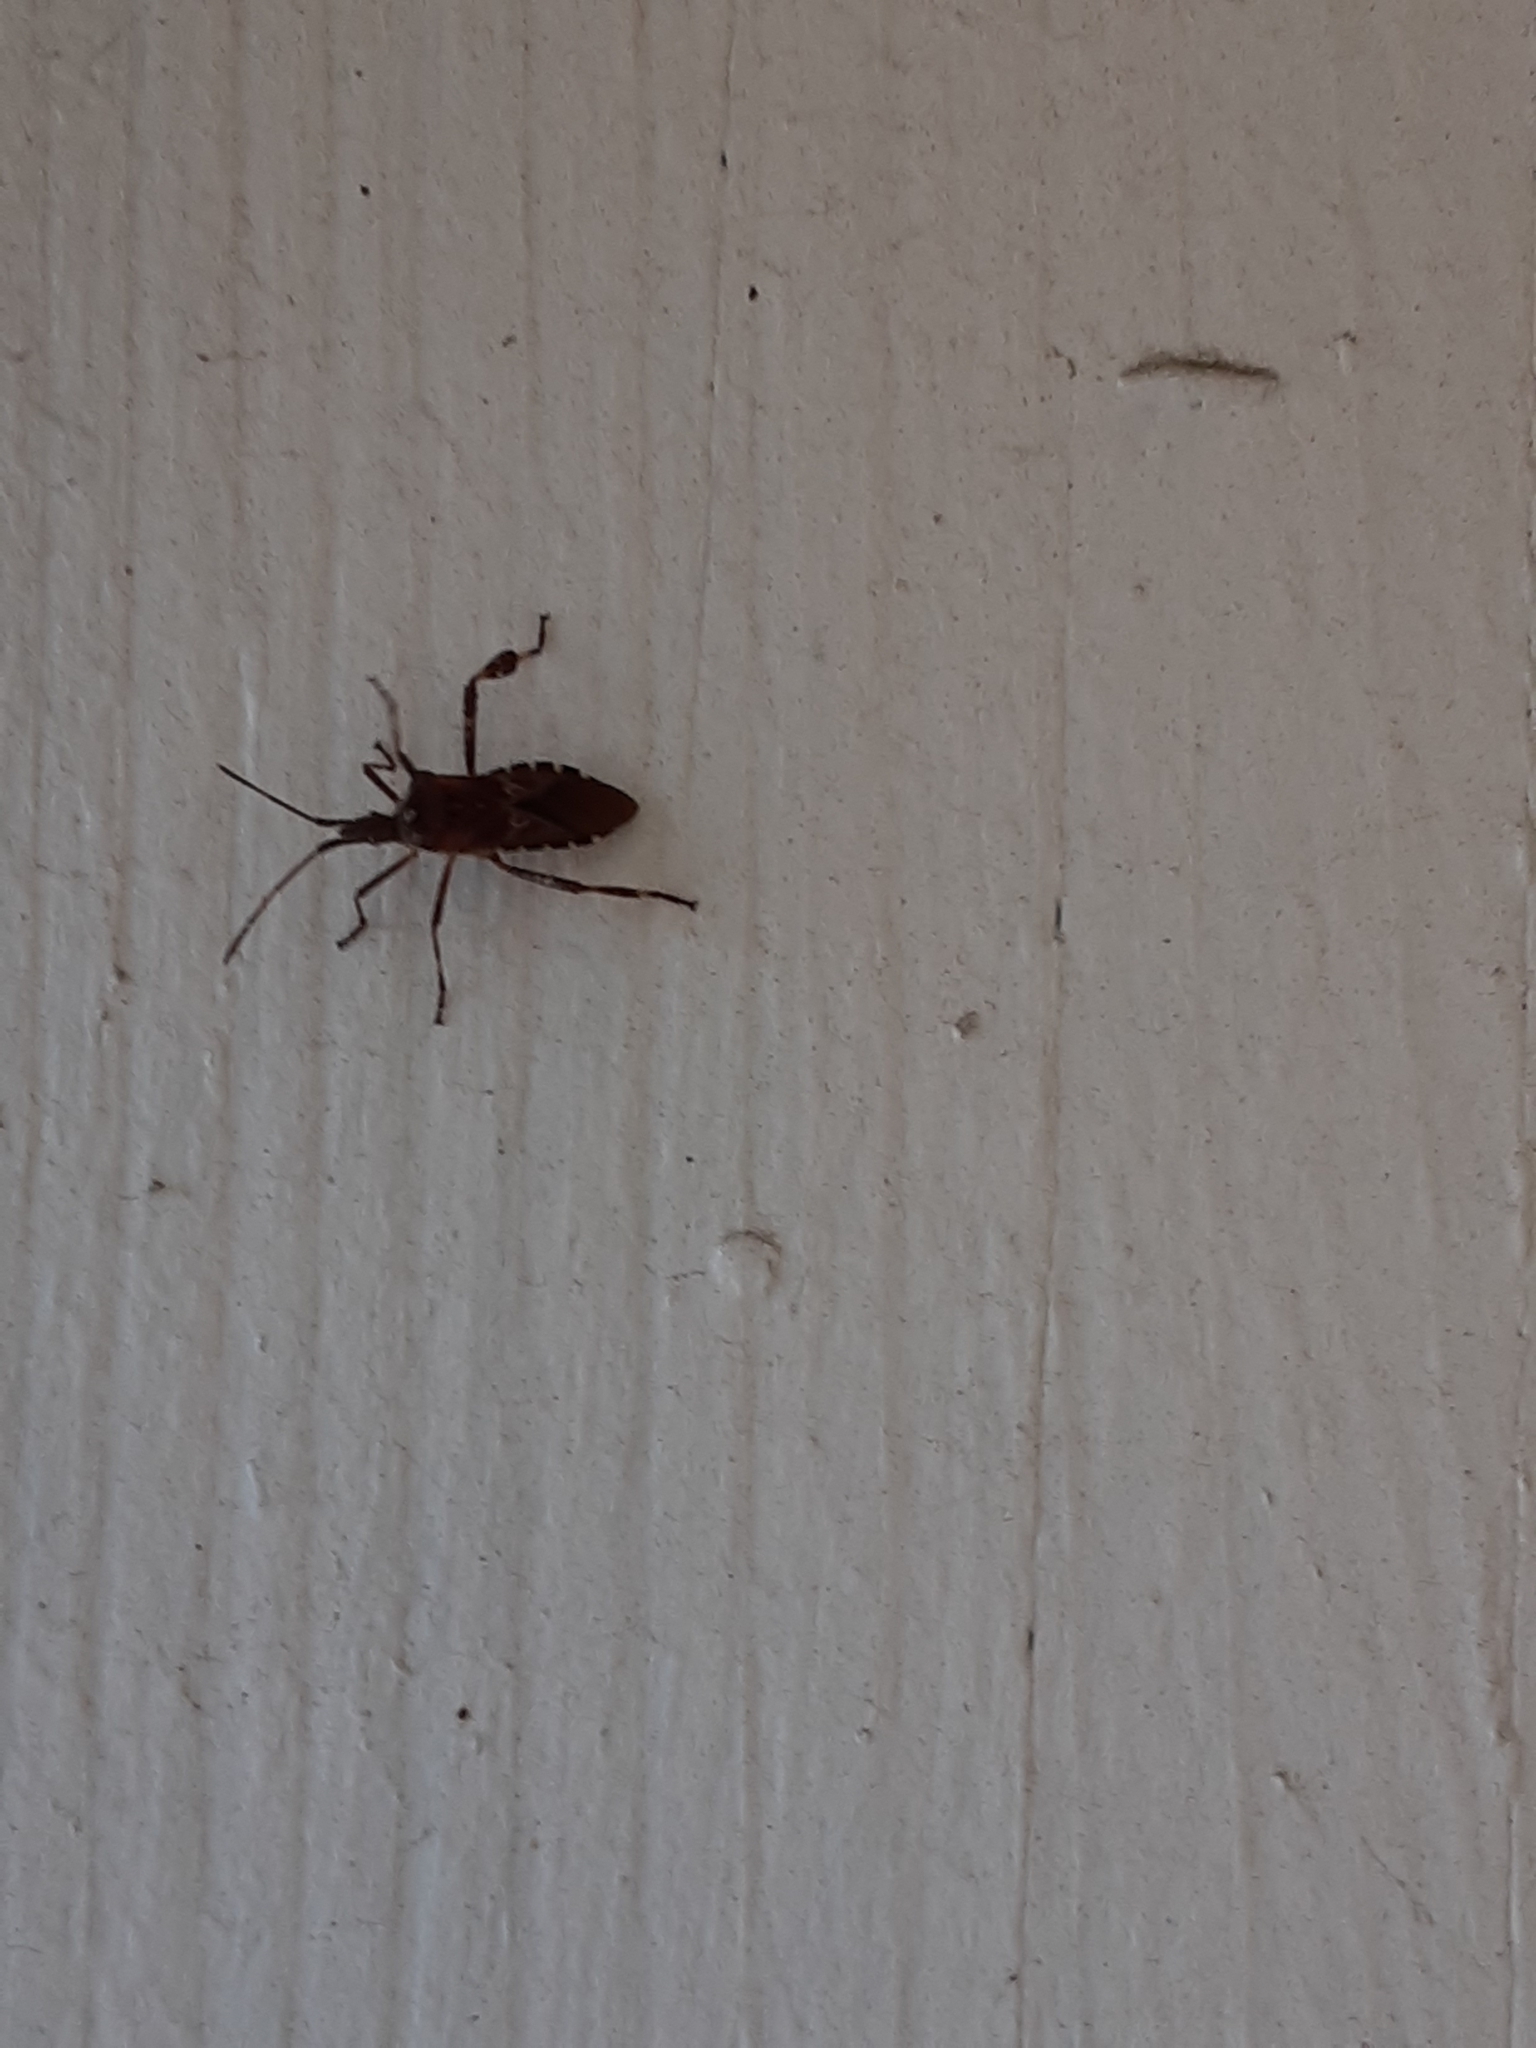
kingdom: Animalia
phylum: Arthropoda
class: Insecta
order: Hemiptera
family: Coreidae
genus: Leptoglossus
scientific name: Leptoglossus occidentalis
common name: Western conifer-seed bug
